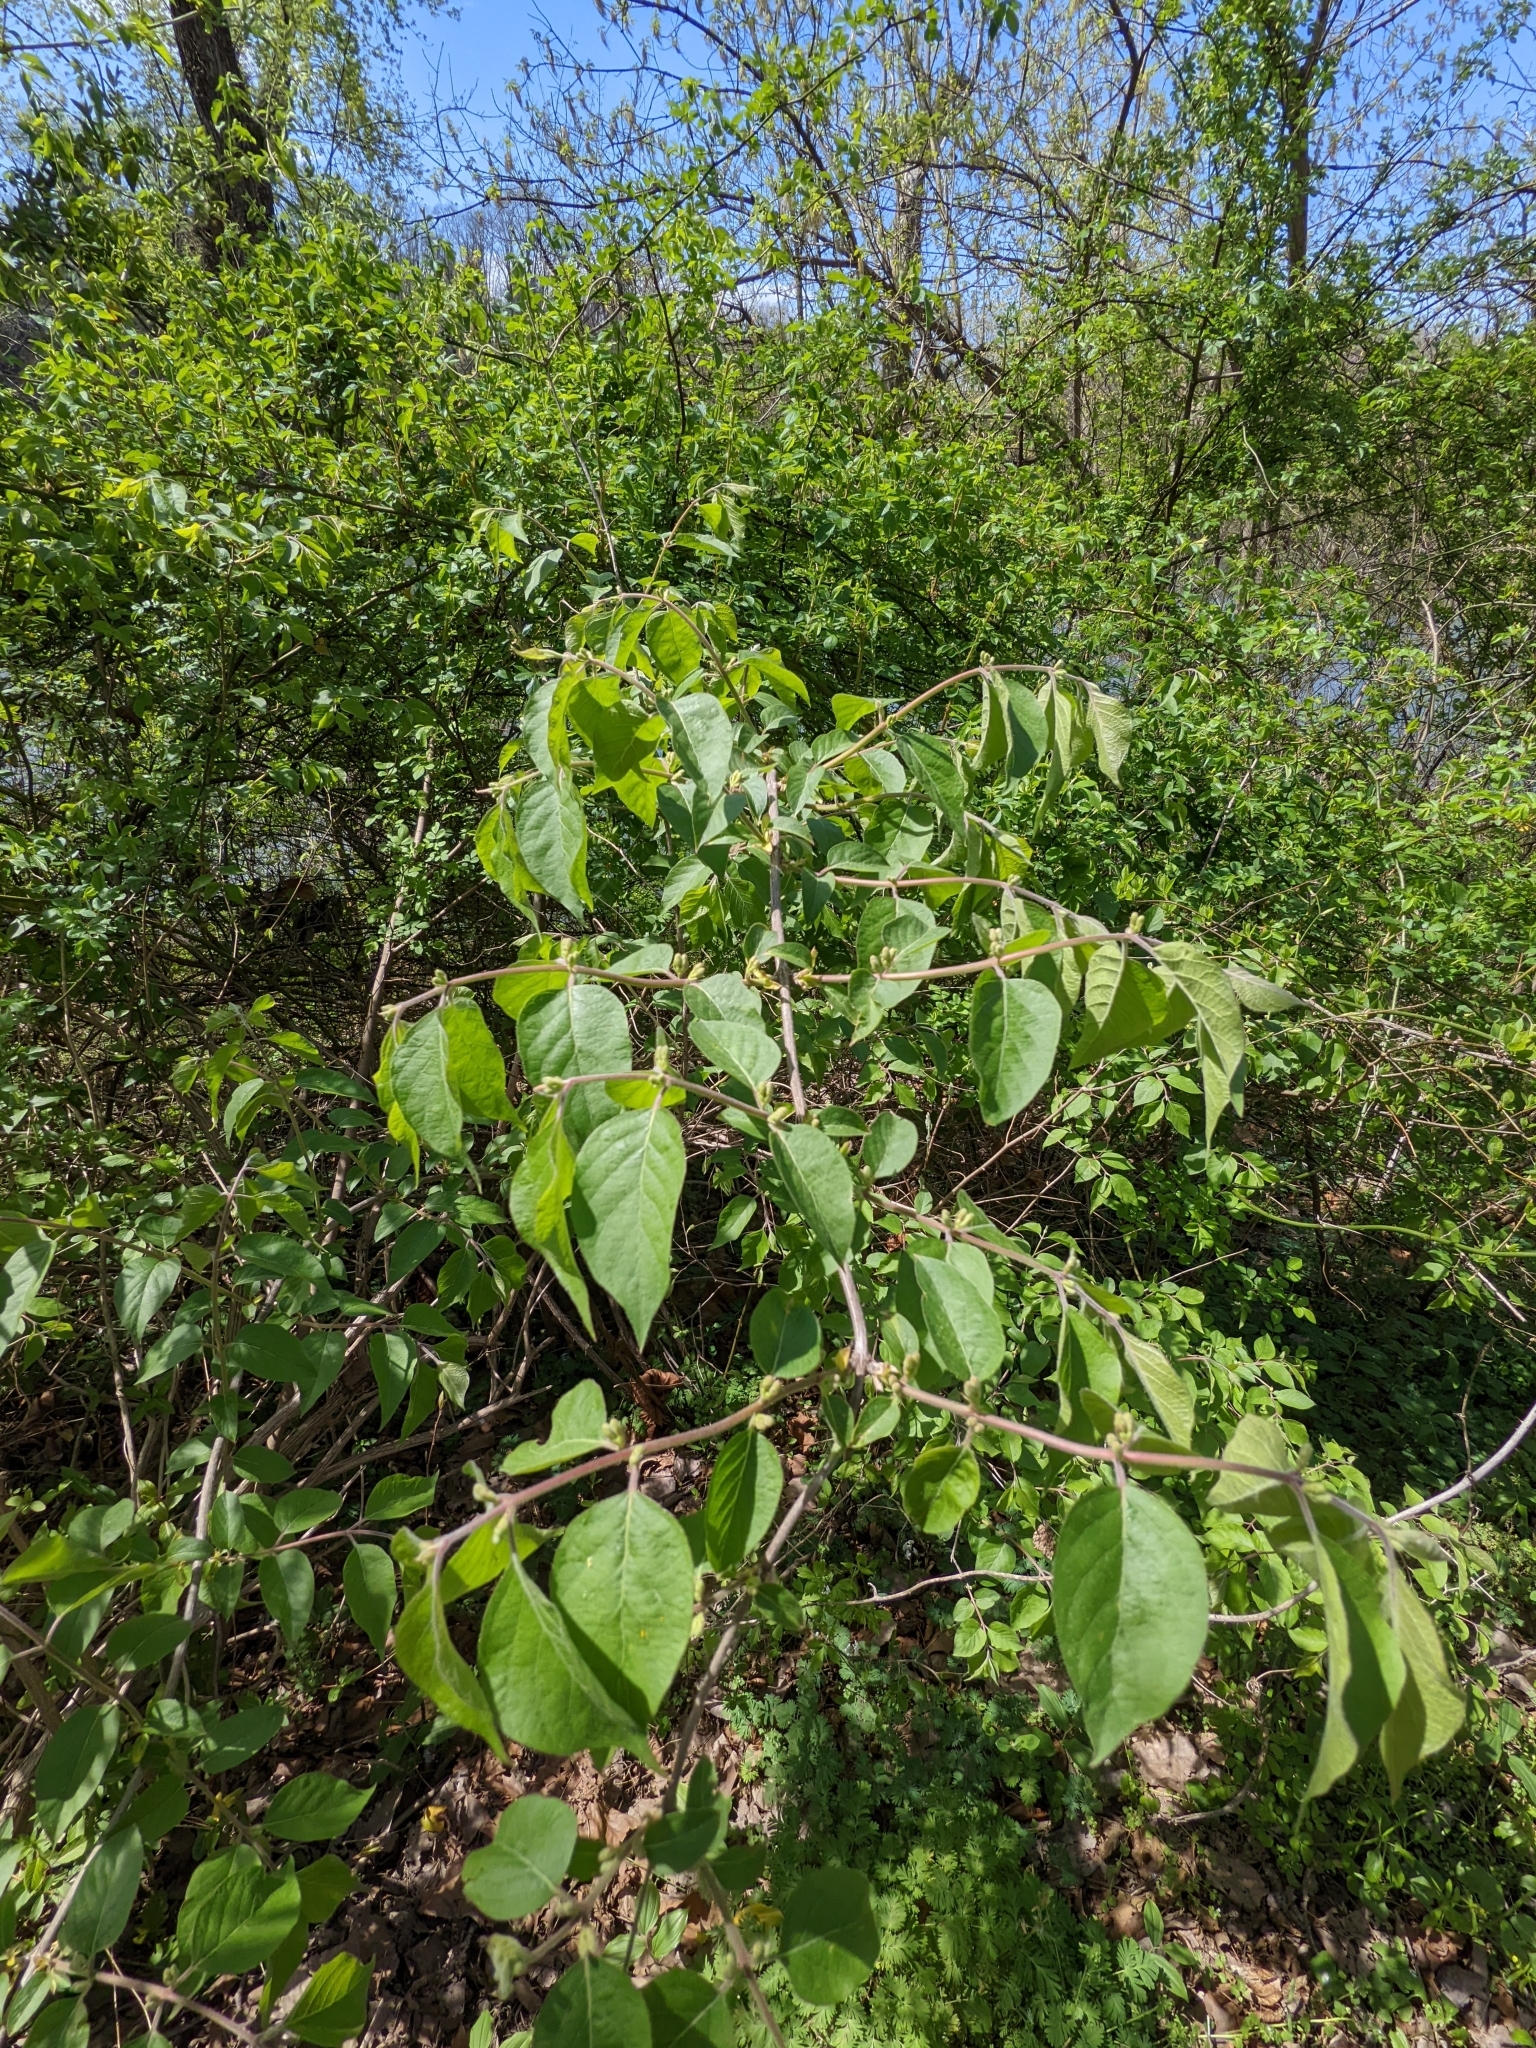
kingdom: Plantae
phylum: Tracheophyta
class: Magnoliopsida
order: Dipsacales
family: Caprifoliaceae
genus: Lonicera
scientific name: Lonicera maackii
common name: Amur honeysuckle
